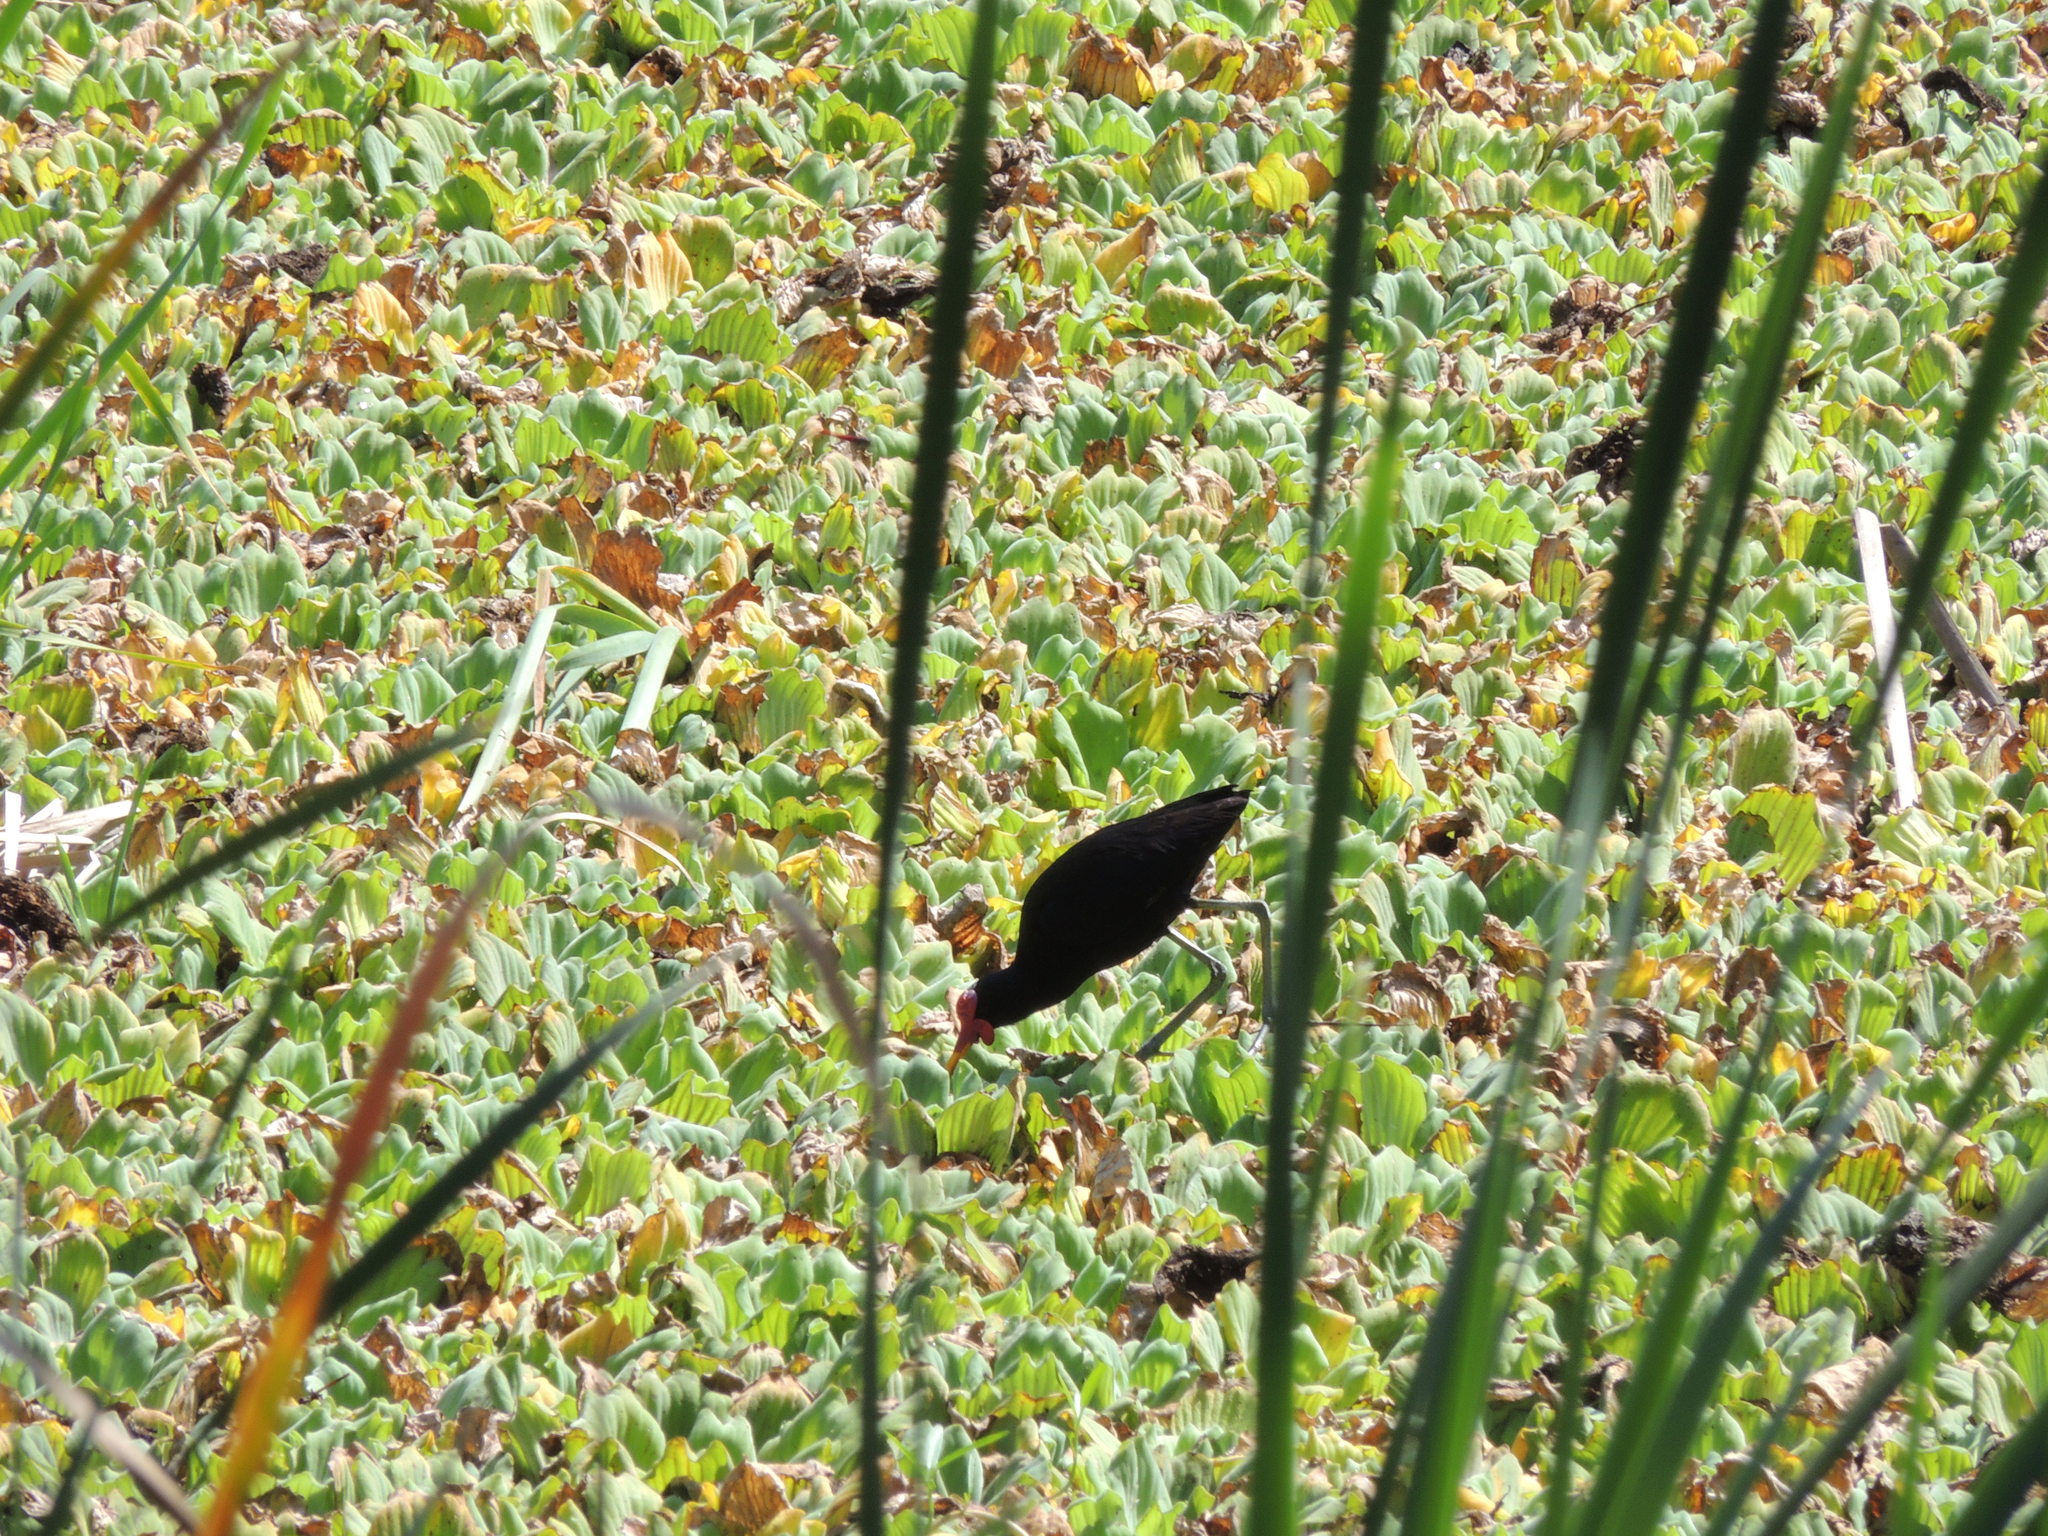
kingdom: Animalia
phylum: Chordata
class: Aves
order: Charadriiformes
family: Jacanidae
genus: Jacana
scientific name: Jacana jacana
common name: Wattled jacana
